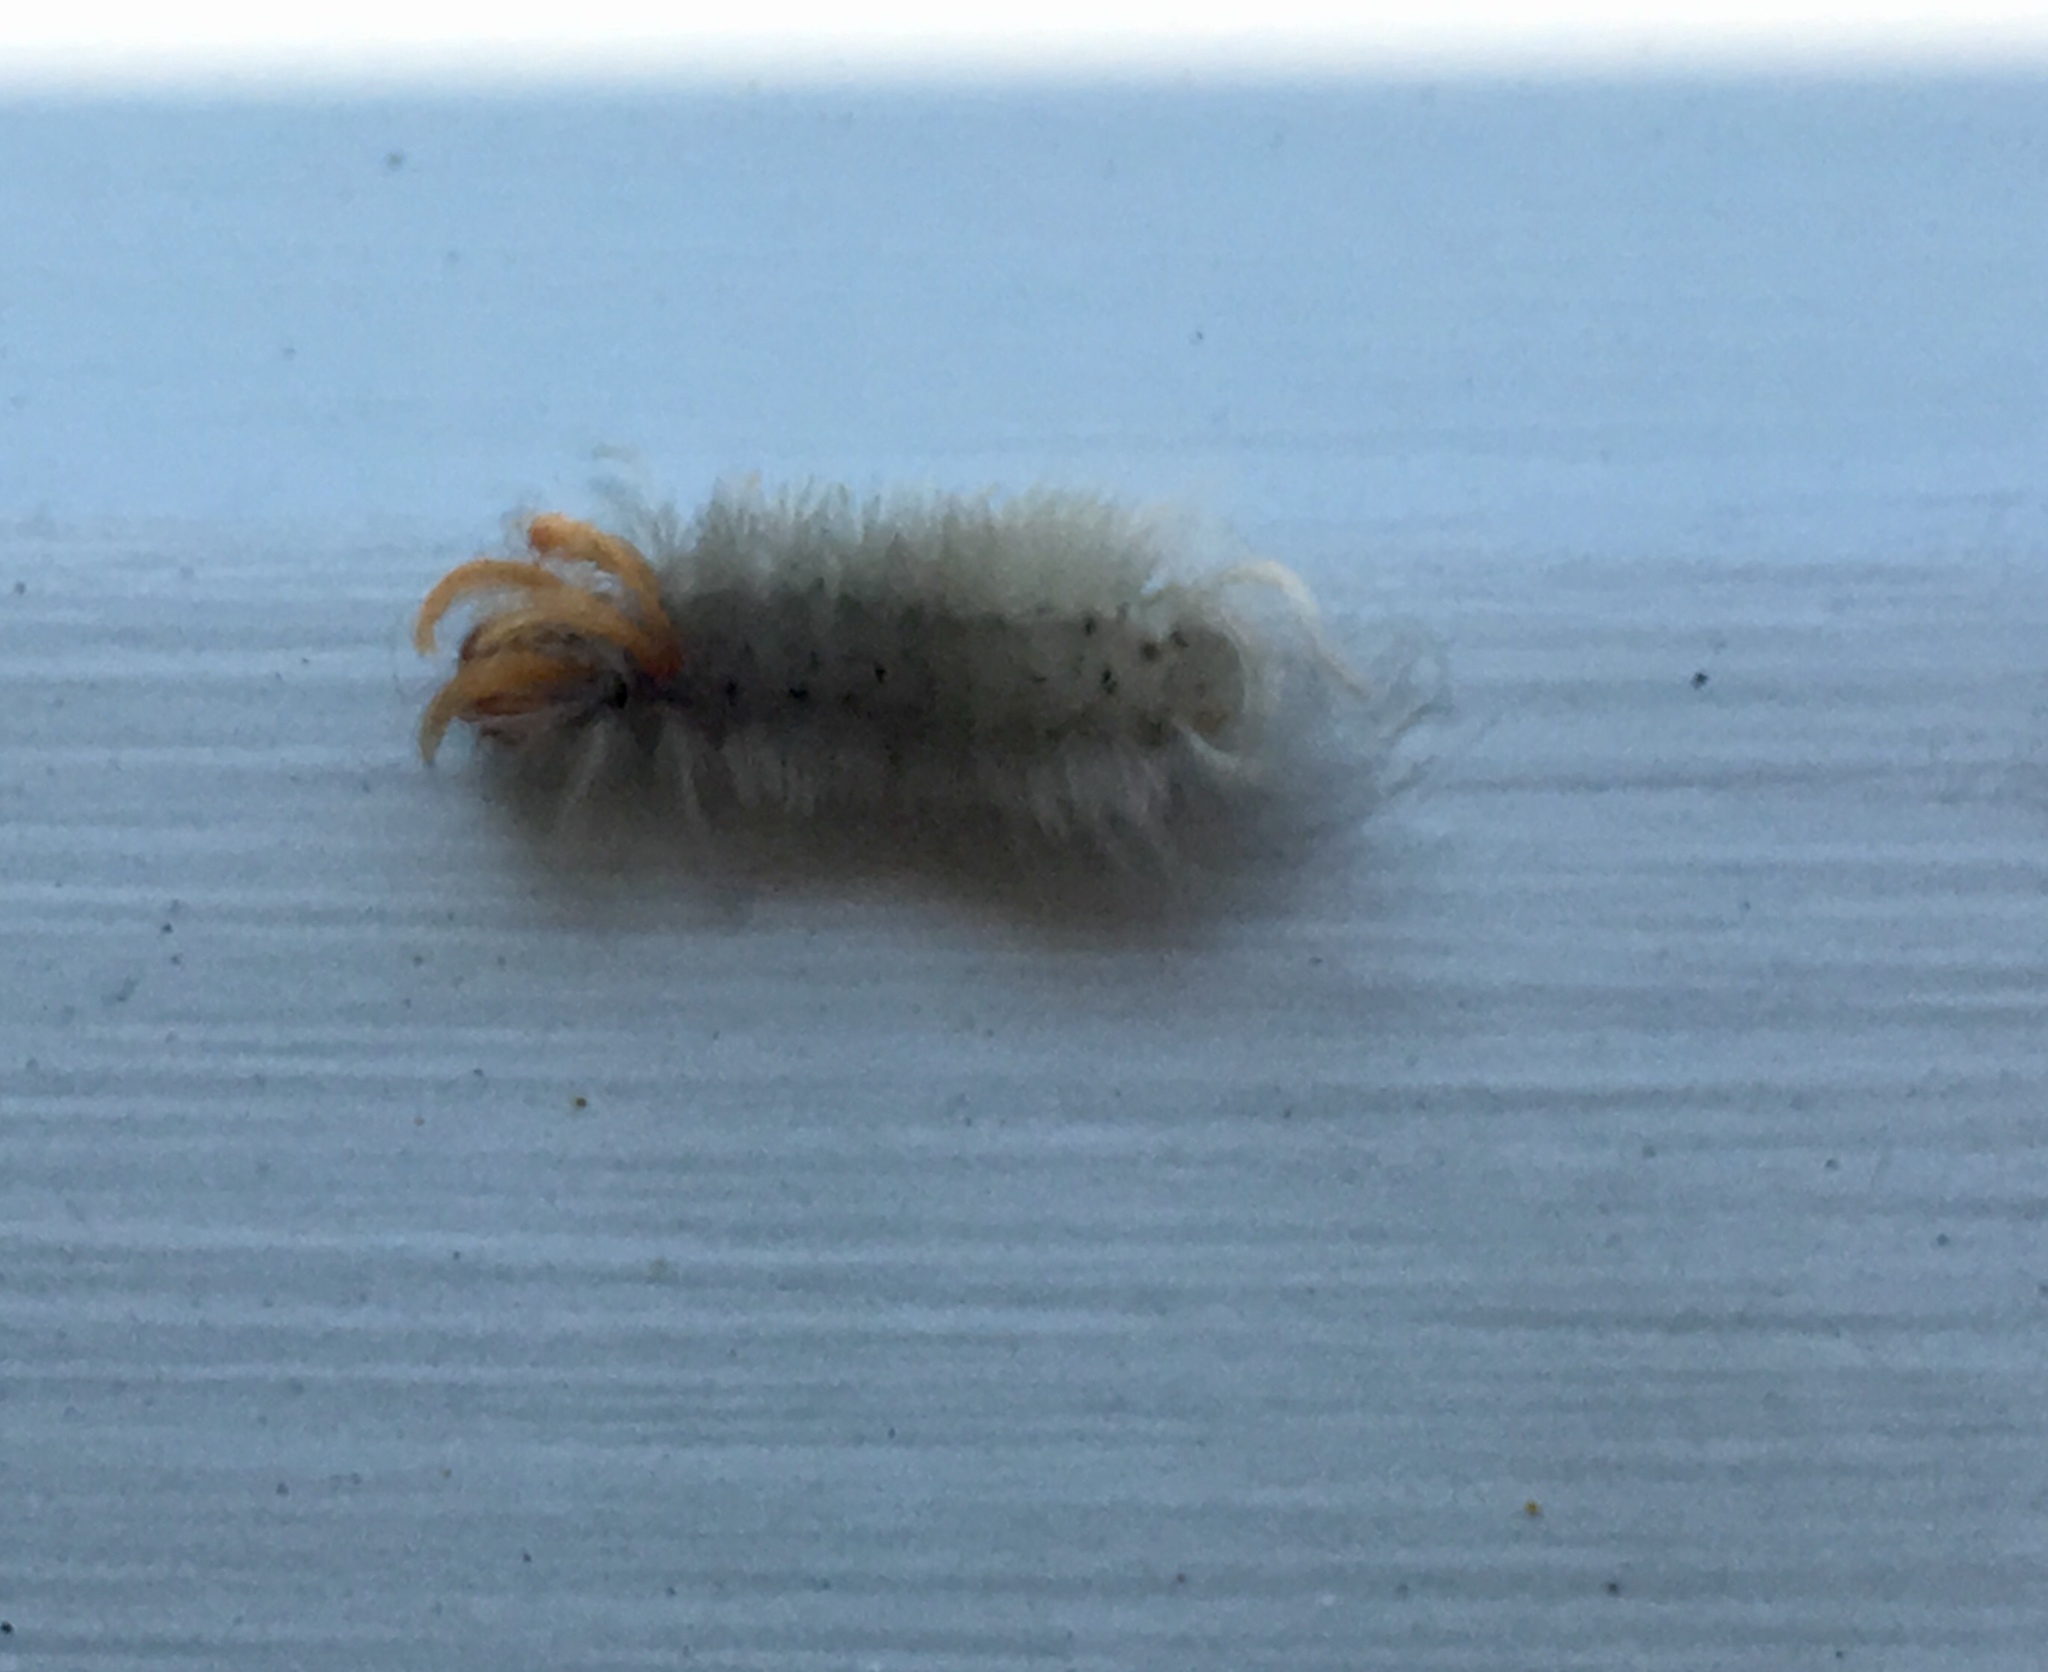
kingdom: Animalia
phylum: Arthropoda
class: Insecta
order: Lepidoptera
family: Erebidae
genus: Halysidota
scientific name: Halysidota harrisii
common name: Sycamore tussock moth
